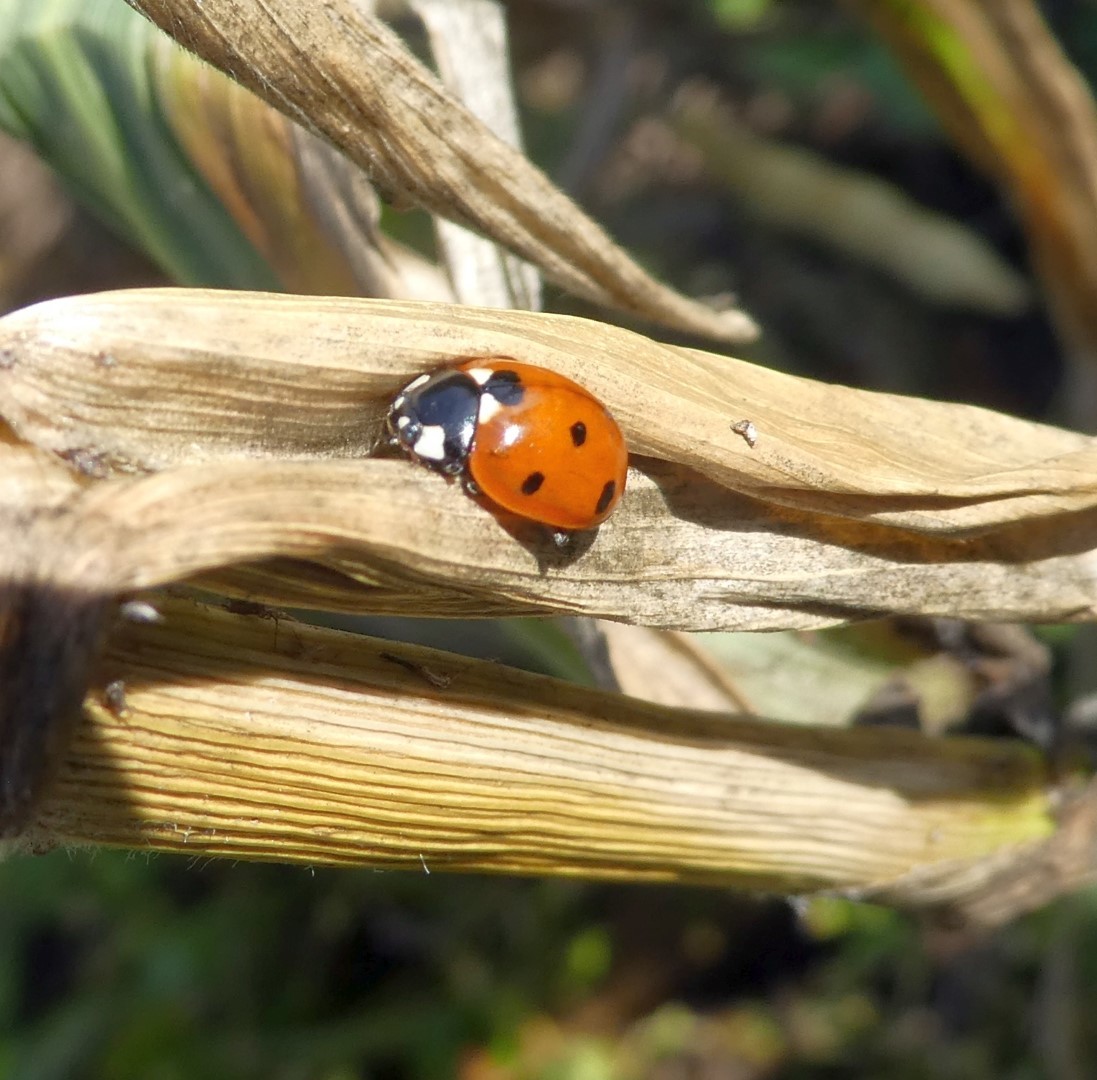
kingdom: Animalia
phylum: Arthropoda
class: Insecta
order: Coleoptera
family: Coccinellidae
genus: Coccinella
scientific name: Coccinella septempunctata
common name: Sevenspotted lady beetle
